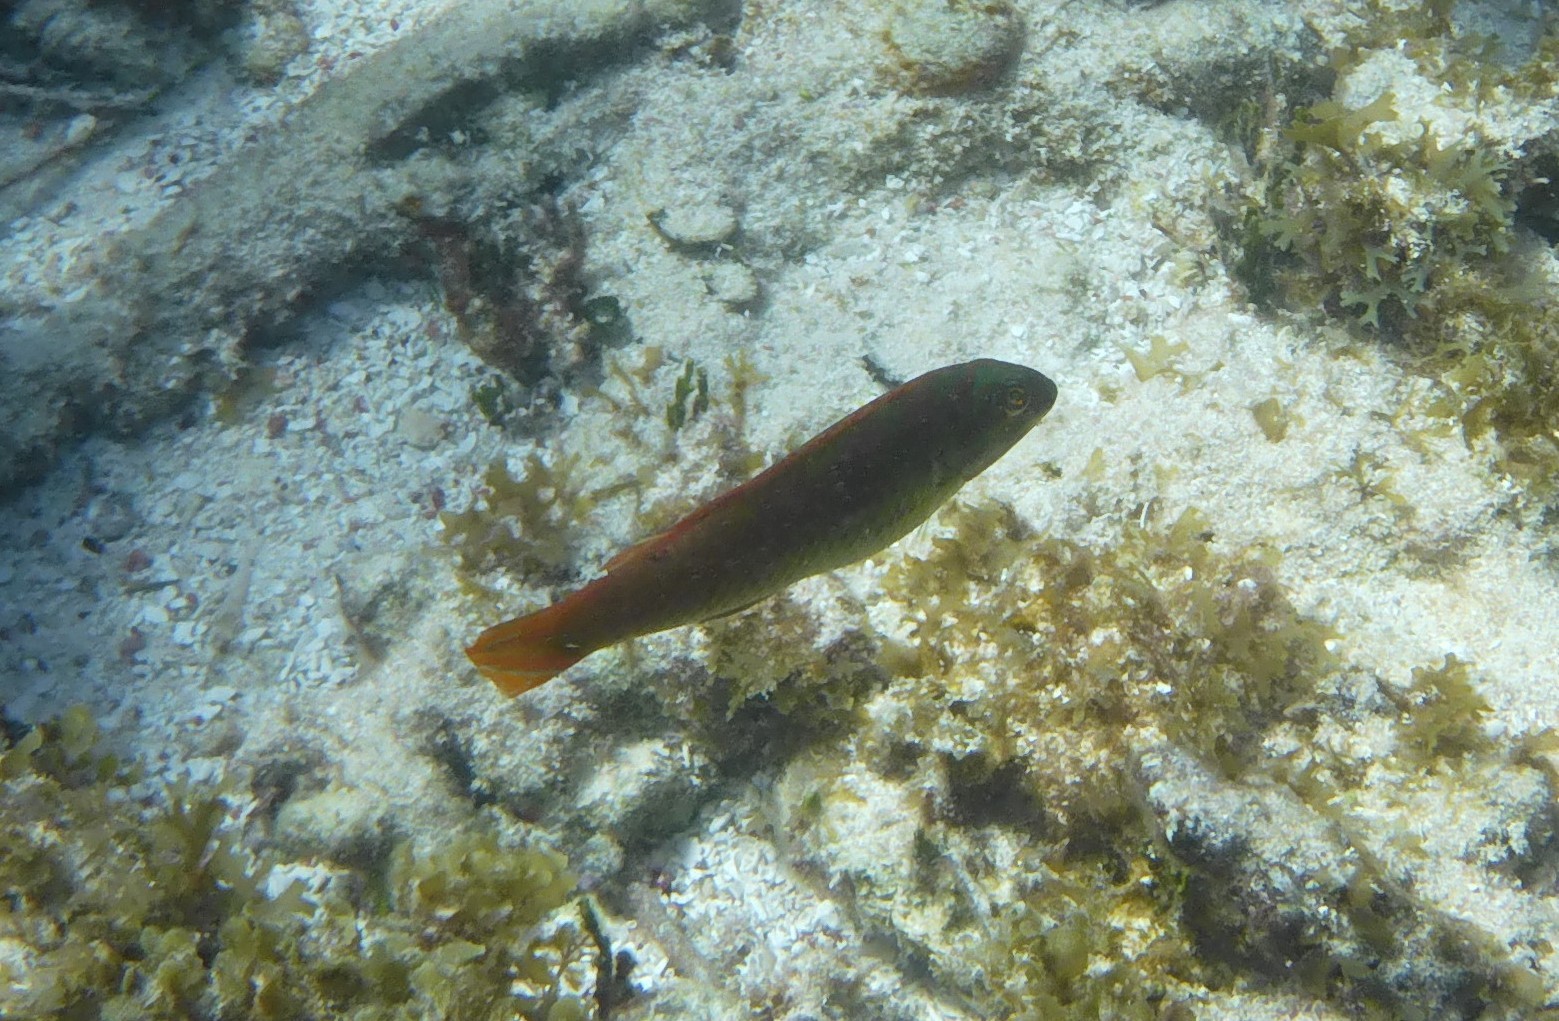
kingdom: Animalia
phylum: Chordata
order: Perciformes
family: Labridae
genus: Halichoeres
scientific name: Halichoeres poeyi
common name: Blackear wrasse
